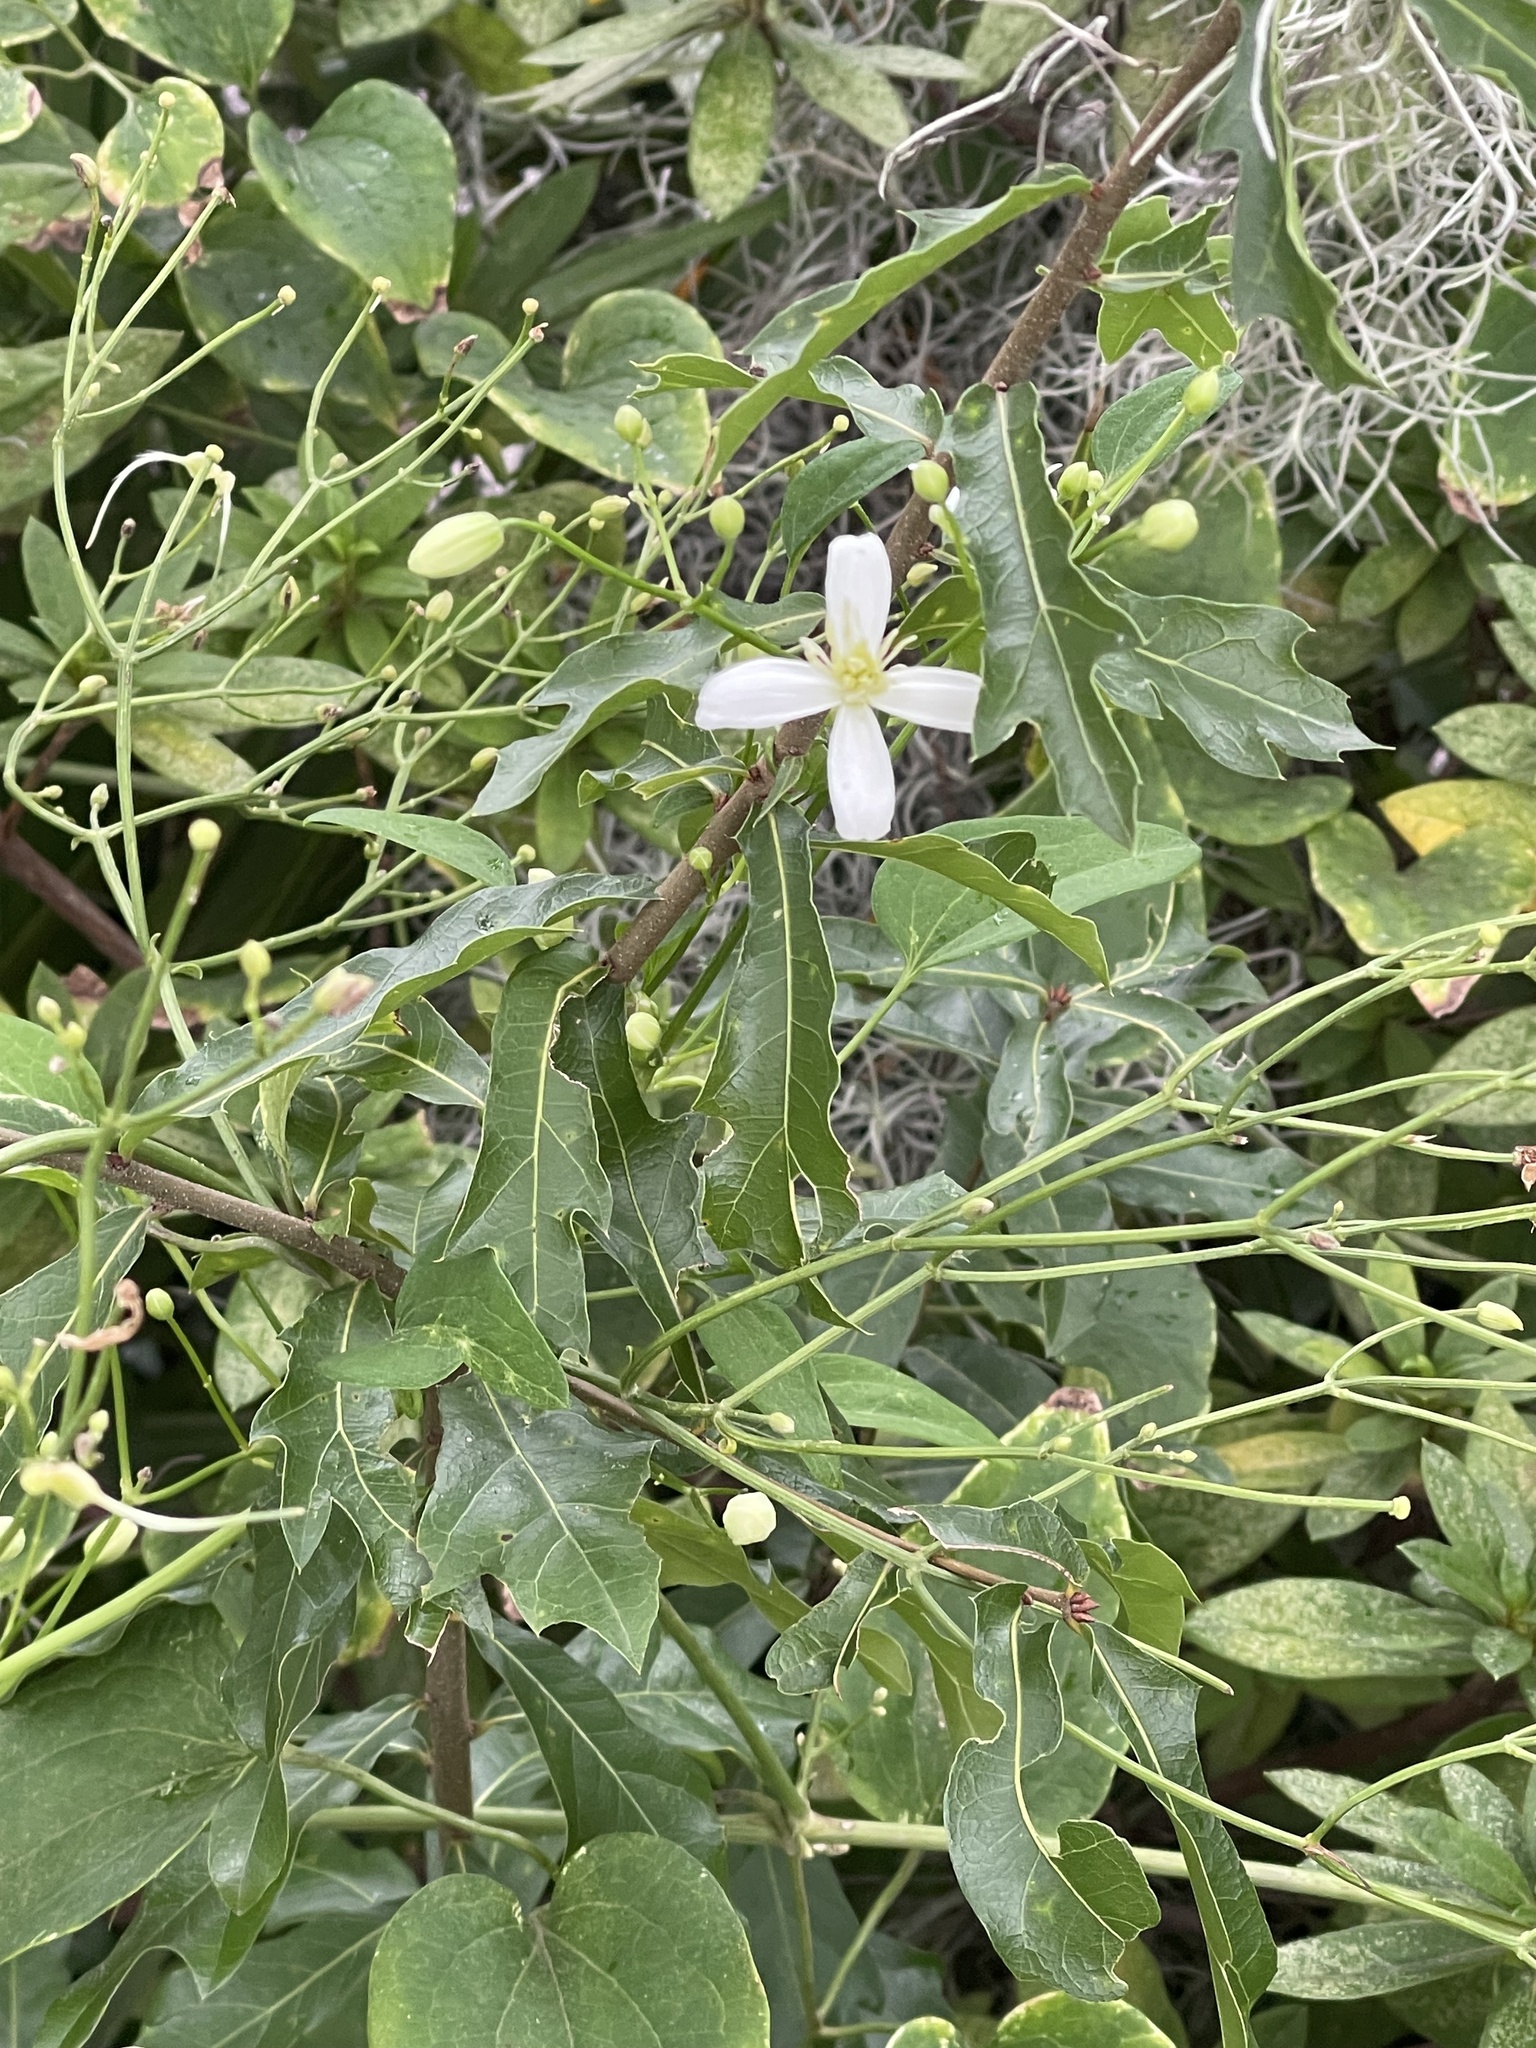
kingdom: Plantae
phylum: Tracheophyta
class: Magnoliopsida
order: Ranunculales
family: Ranunculaceae
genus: Clematis
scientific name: Clematis terniflora
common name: Sweet autumn clematis
